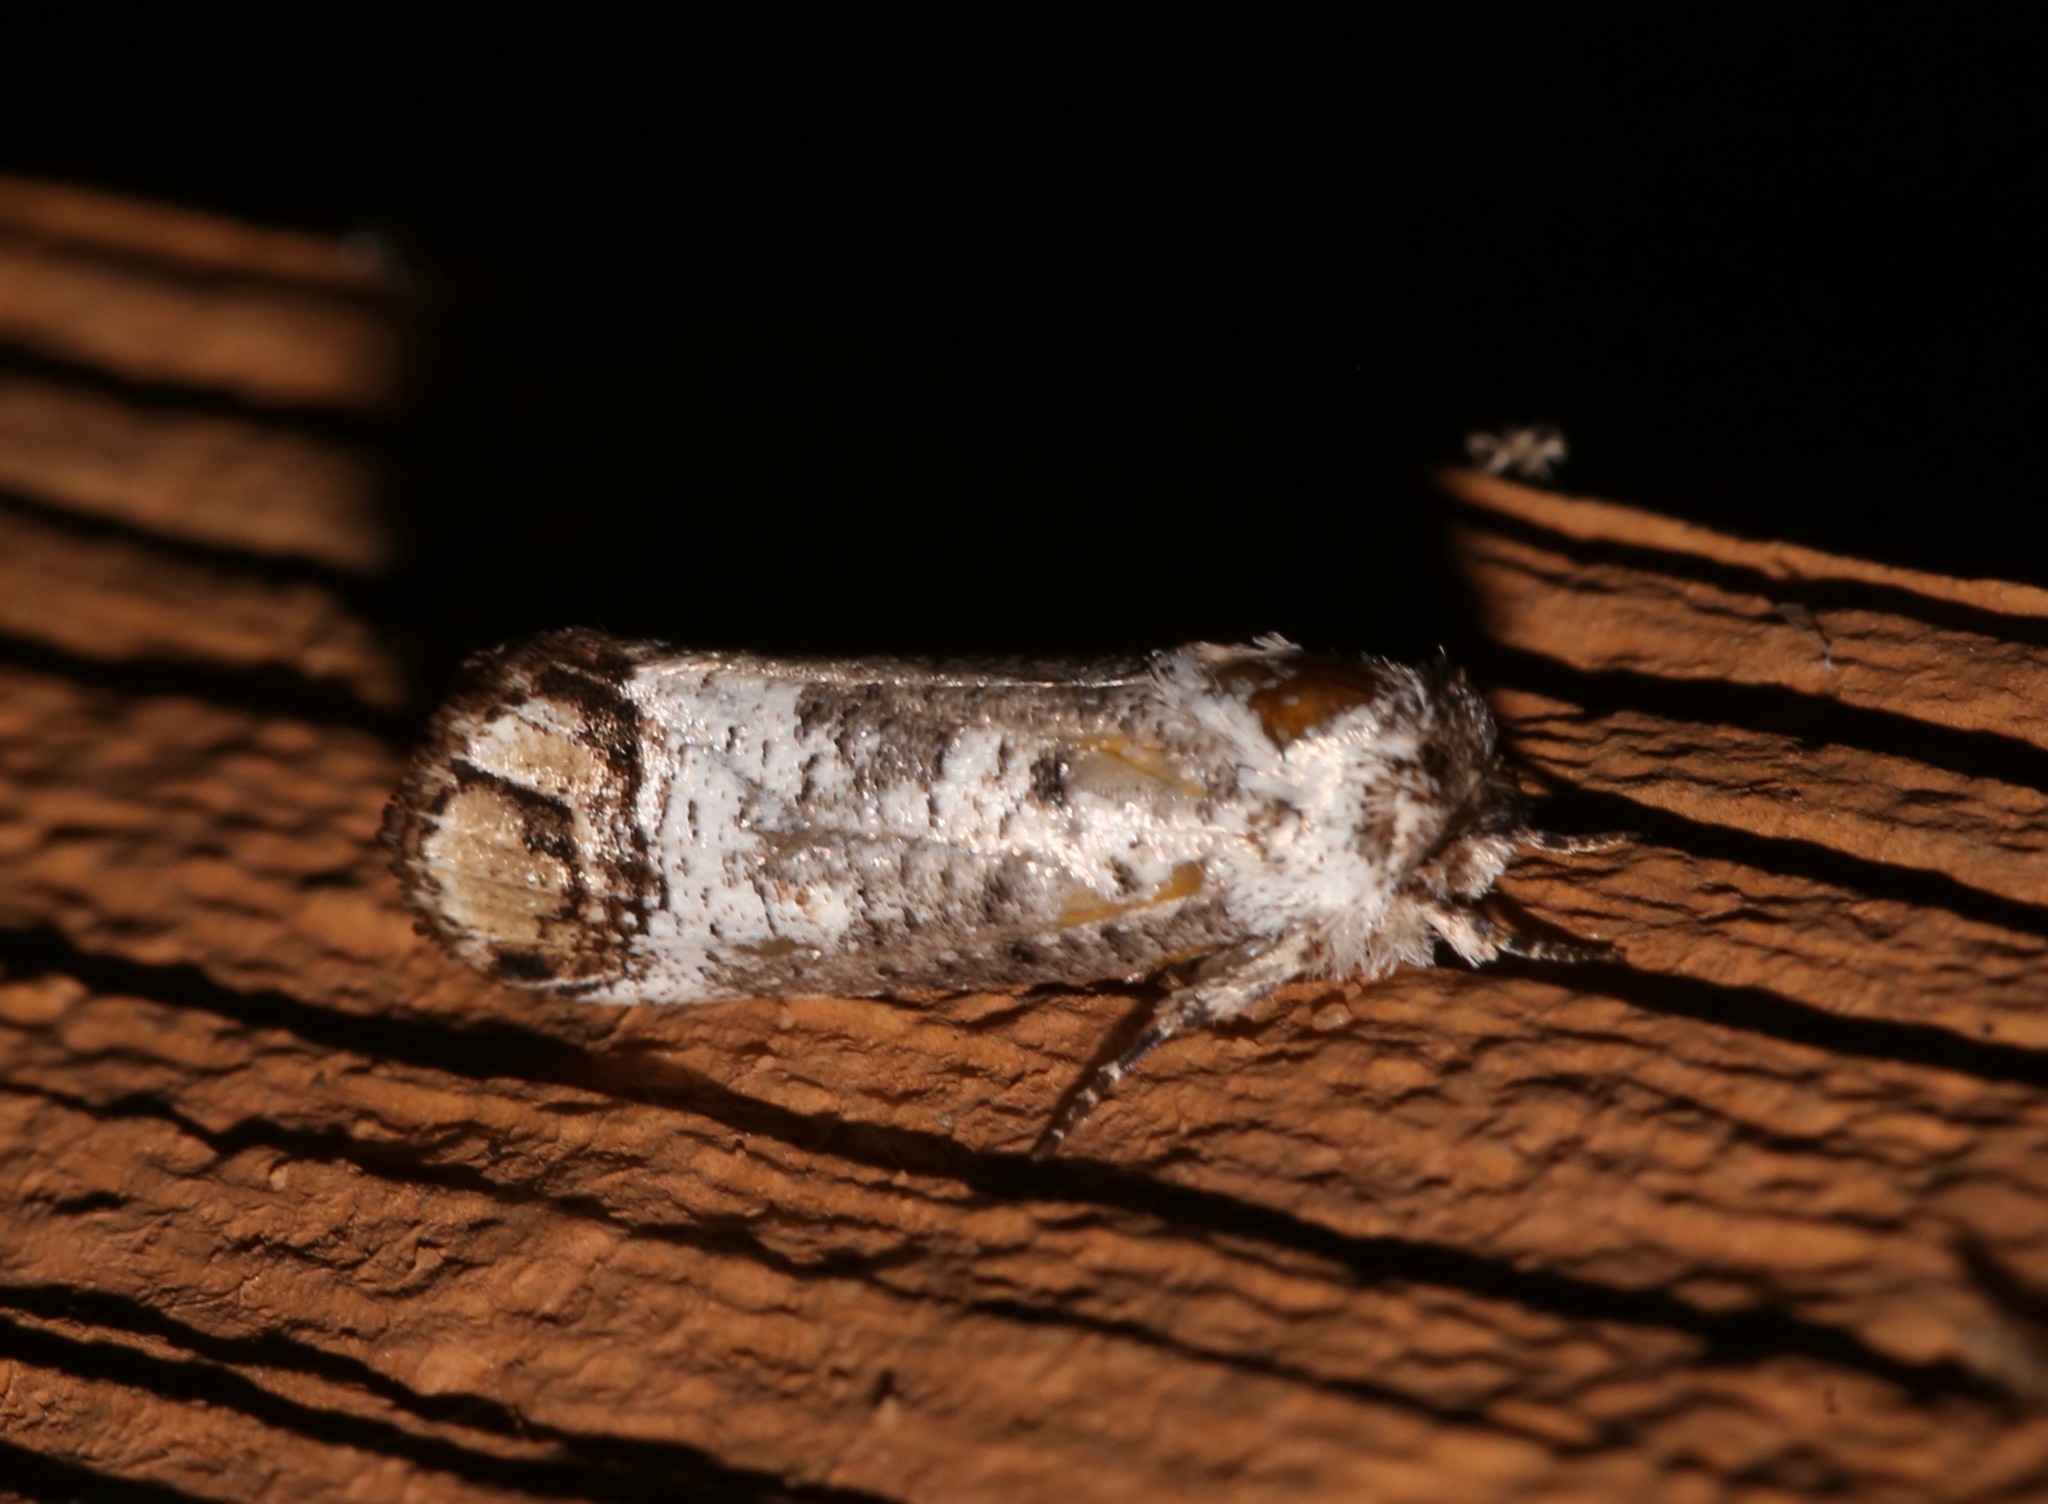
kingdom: Animalia
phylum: Arthropoda
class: Insecta
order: Lepidoptera
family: Cossidae
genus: Cossula
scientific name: Cossula magnifica
